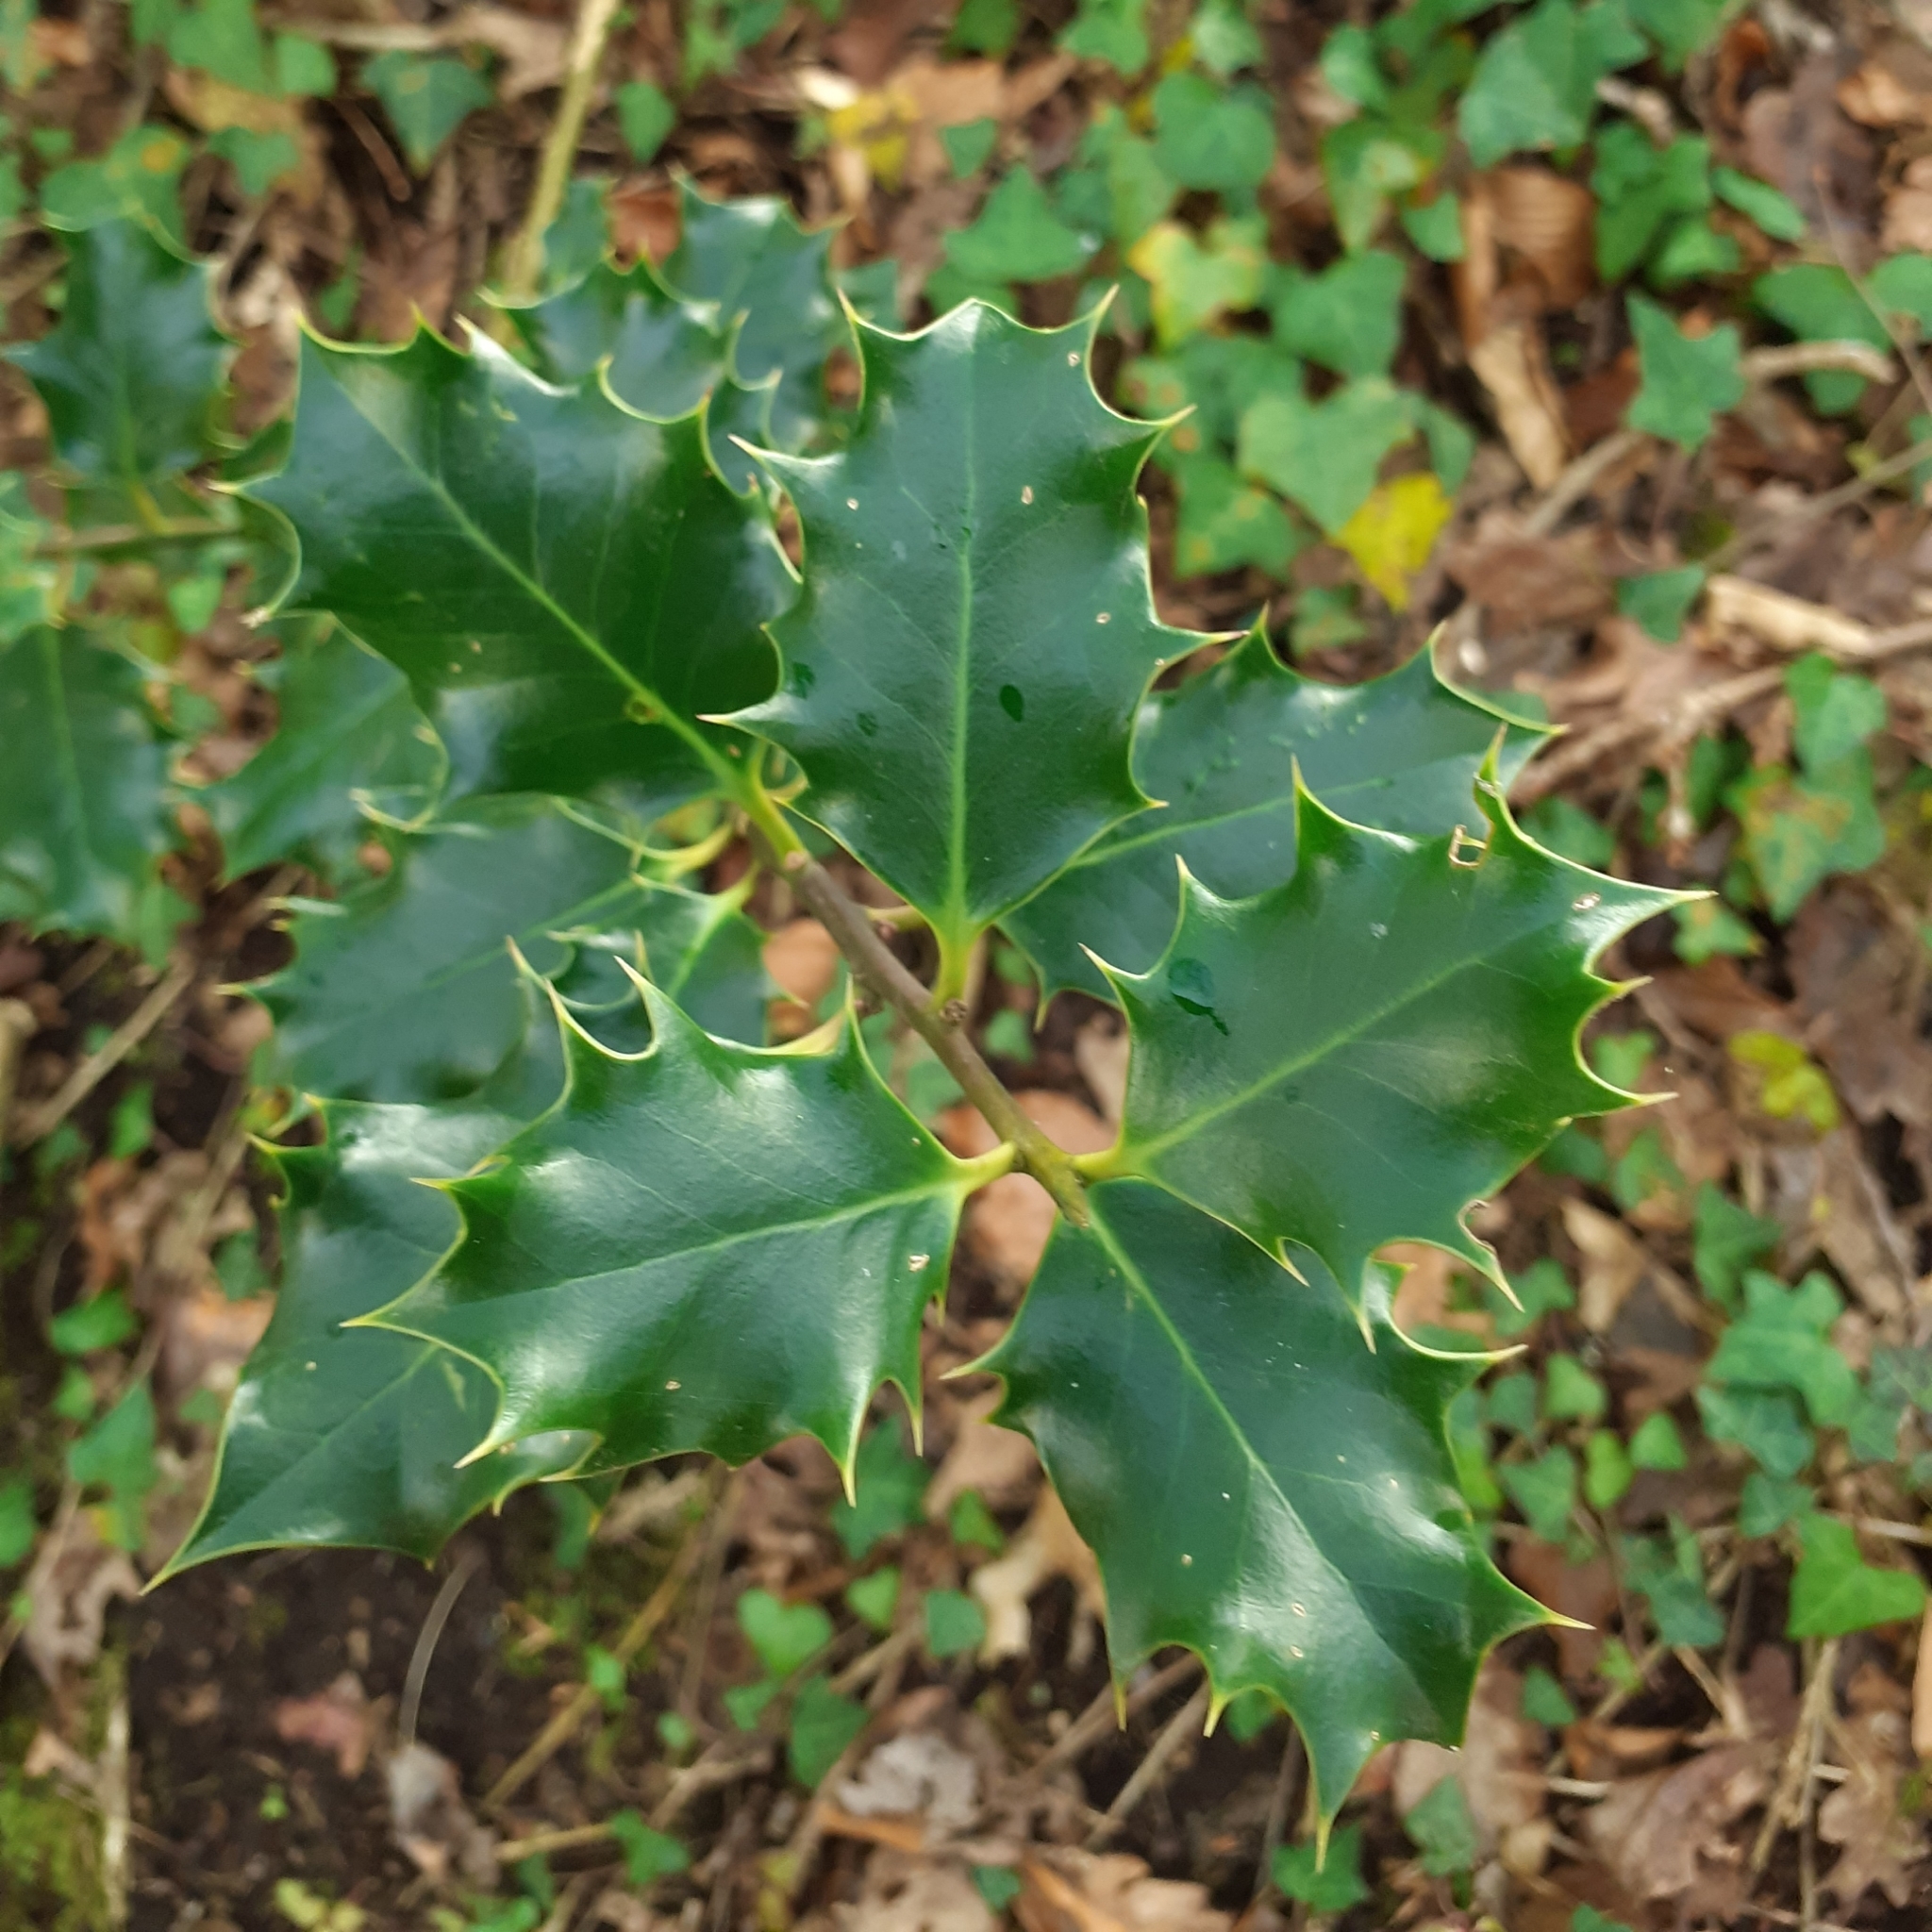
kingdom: Plantae
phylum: Tracheophyta
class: Magnoliopsida
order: Aquifoliales
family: Aquifoliaceae
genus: Ilex
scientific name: Ilex aquifolium
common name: English holly
